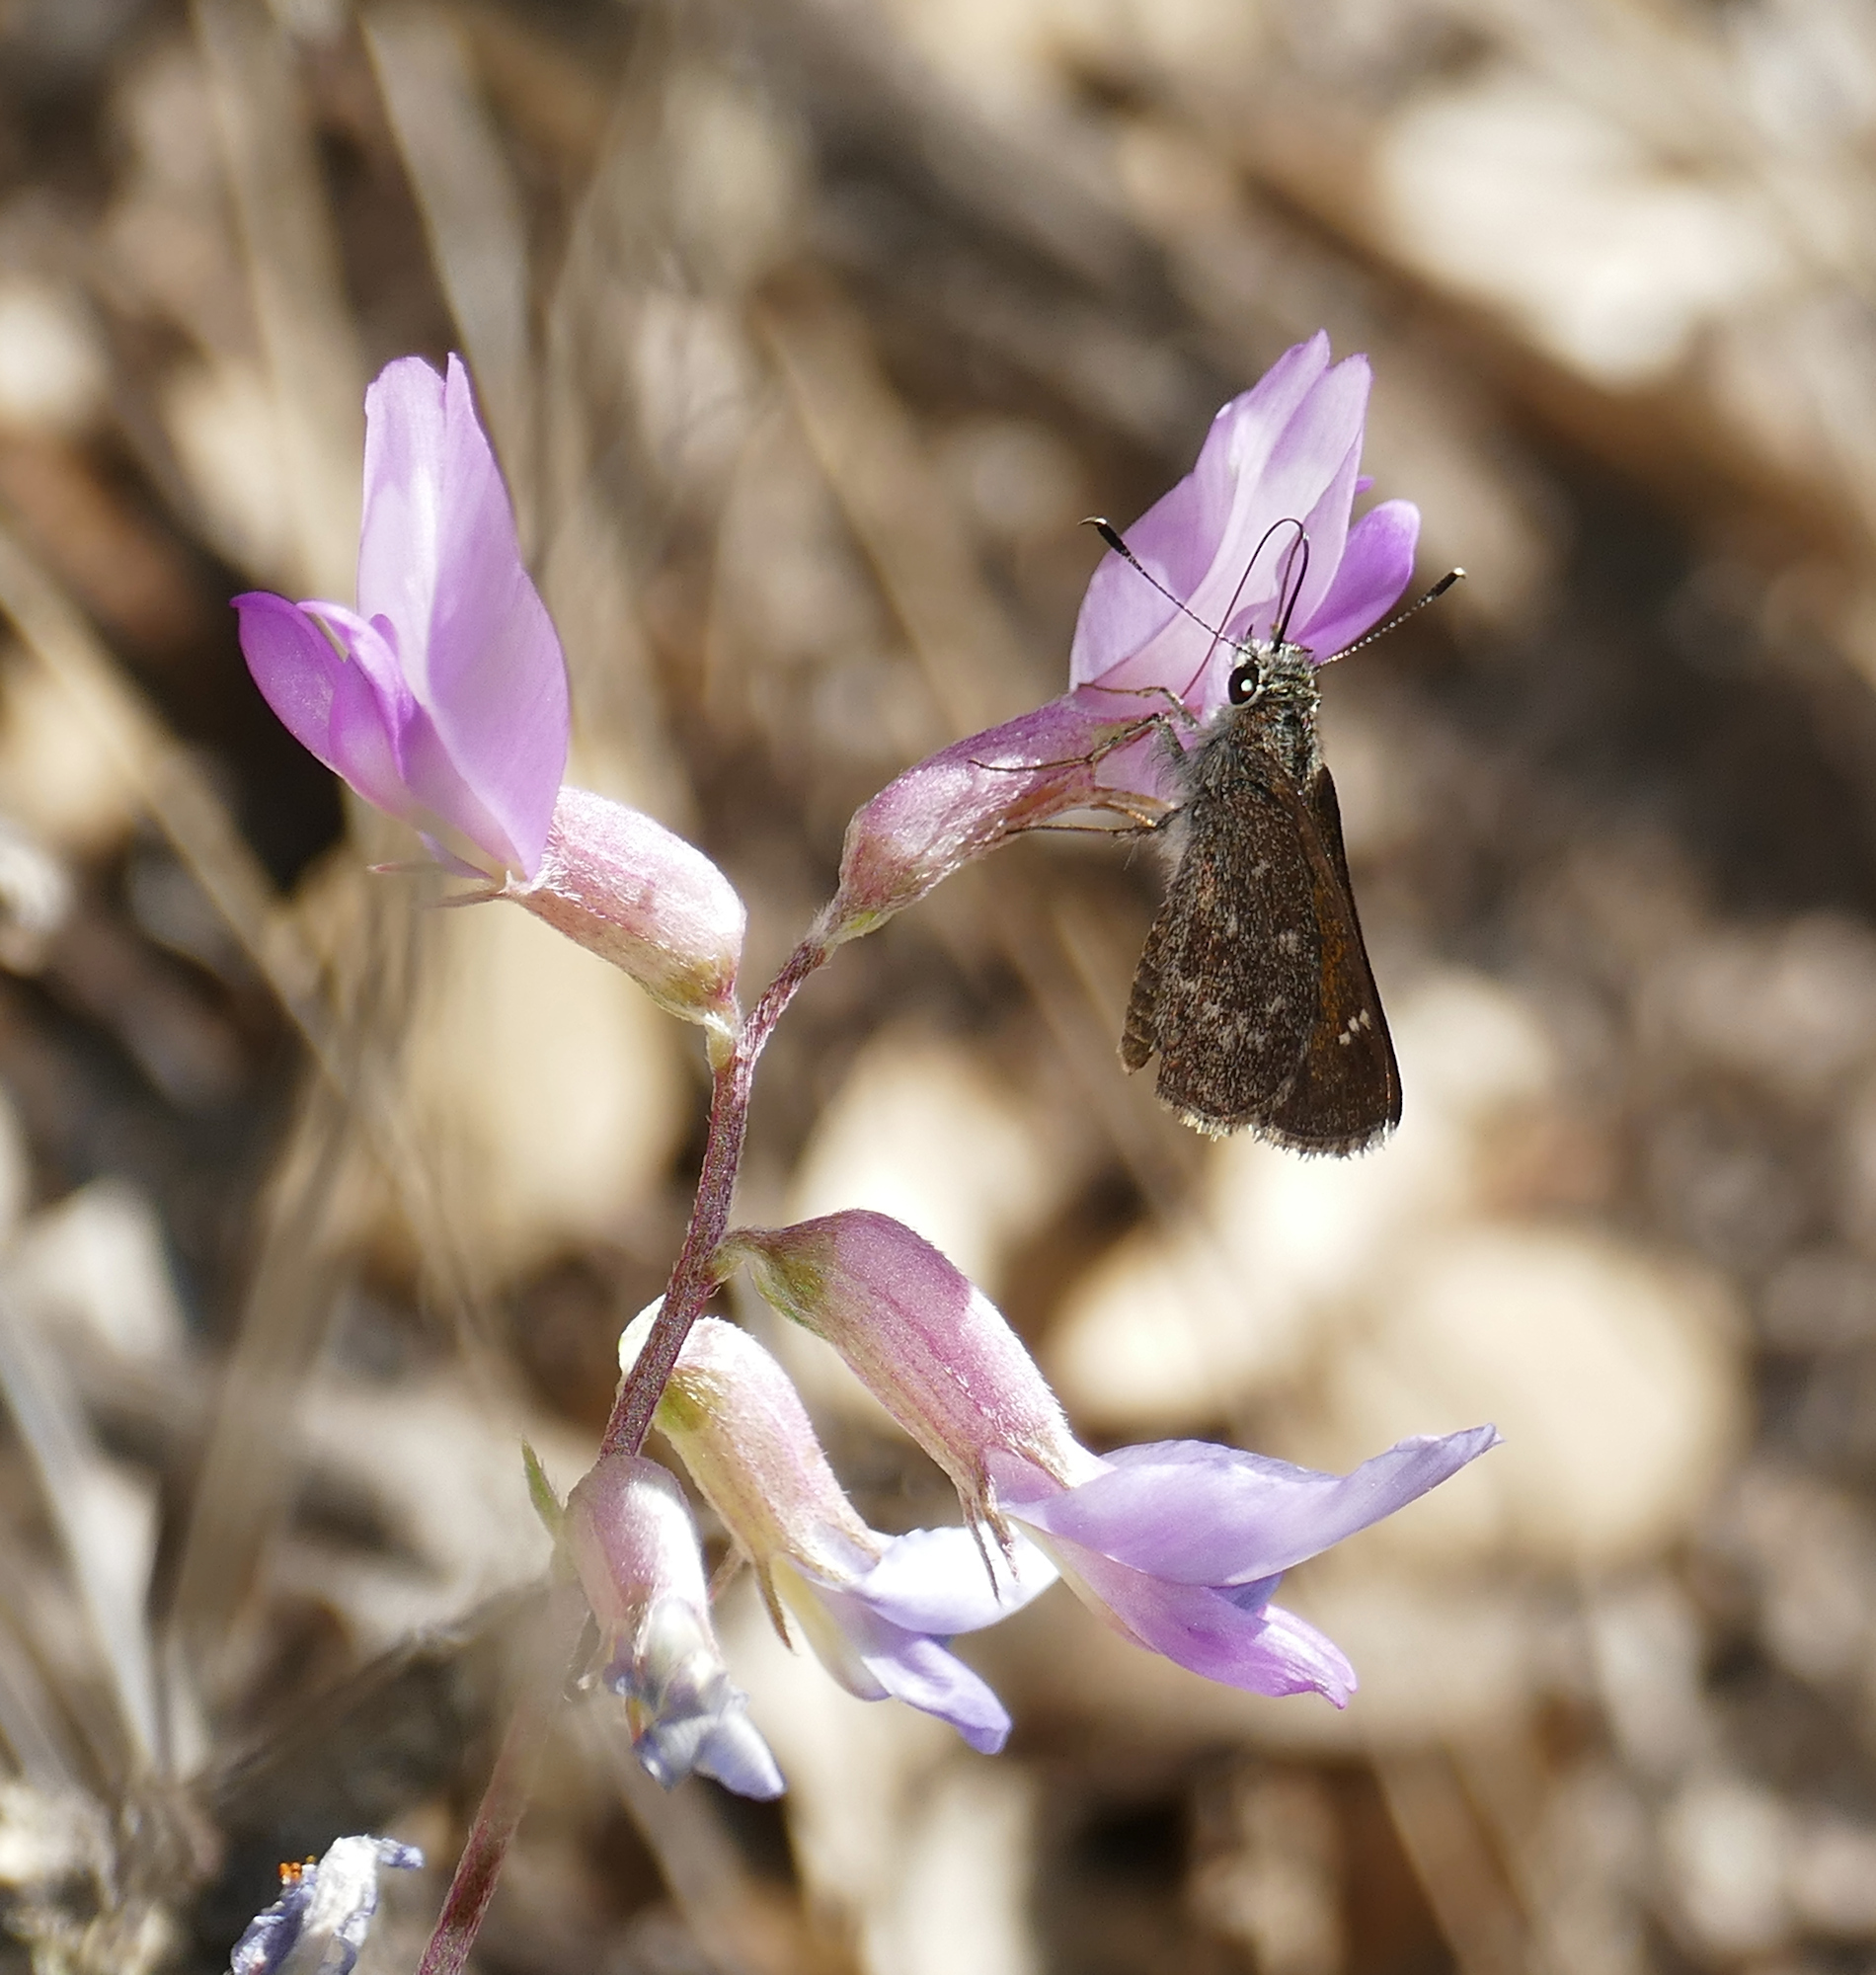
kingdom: Animalia
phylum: Arthropoda
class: Insecta
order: Lepidoptera
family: Hesperiidae
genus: Mastor
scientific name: Mastor aenus
